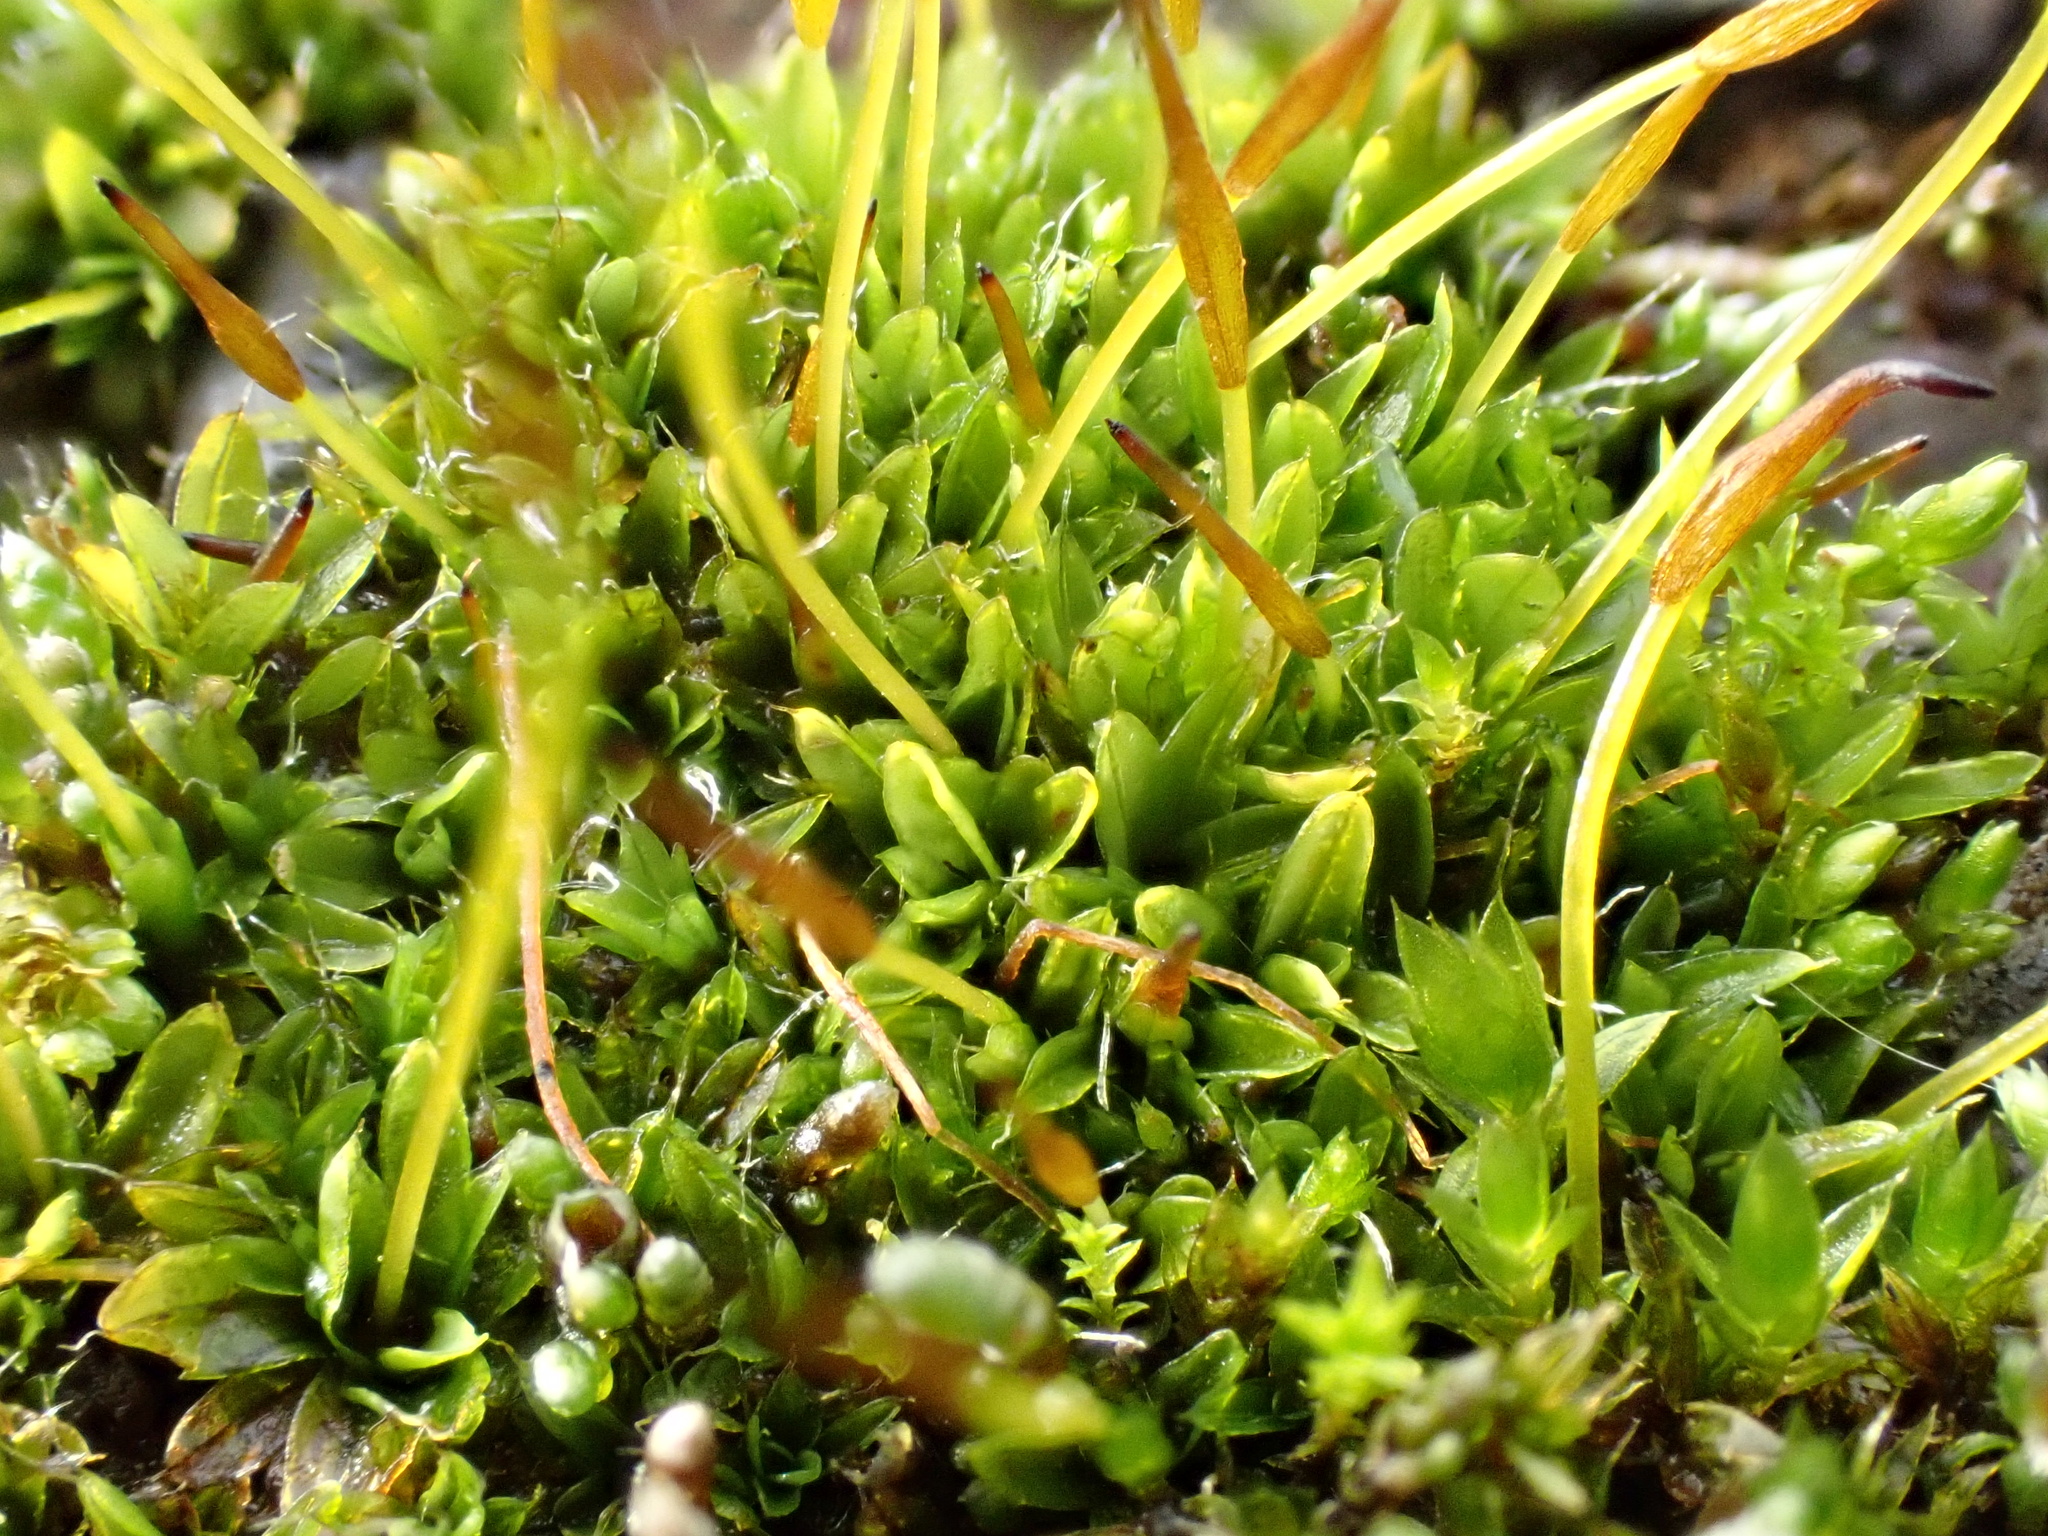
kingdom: Plantae
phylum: Bryophyta
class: Bryopsida
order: Pottiales
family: Pottiaceae
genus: Tortula
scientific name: Tortula muralis
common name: Wall screw-moss
